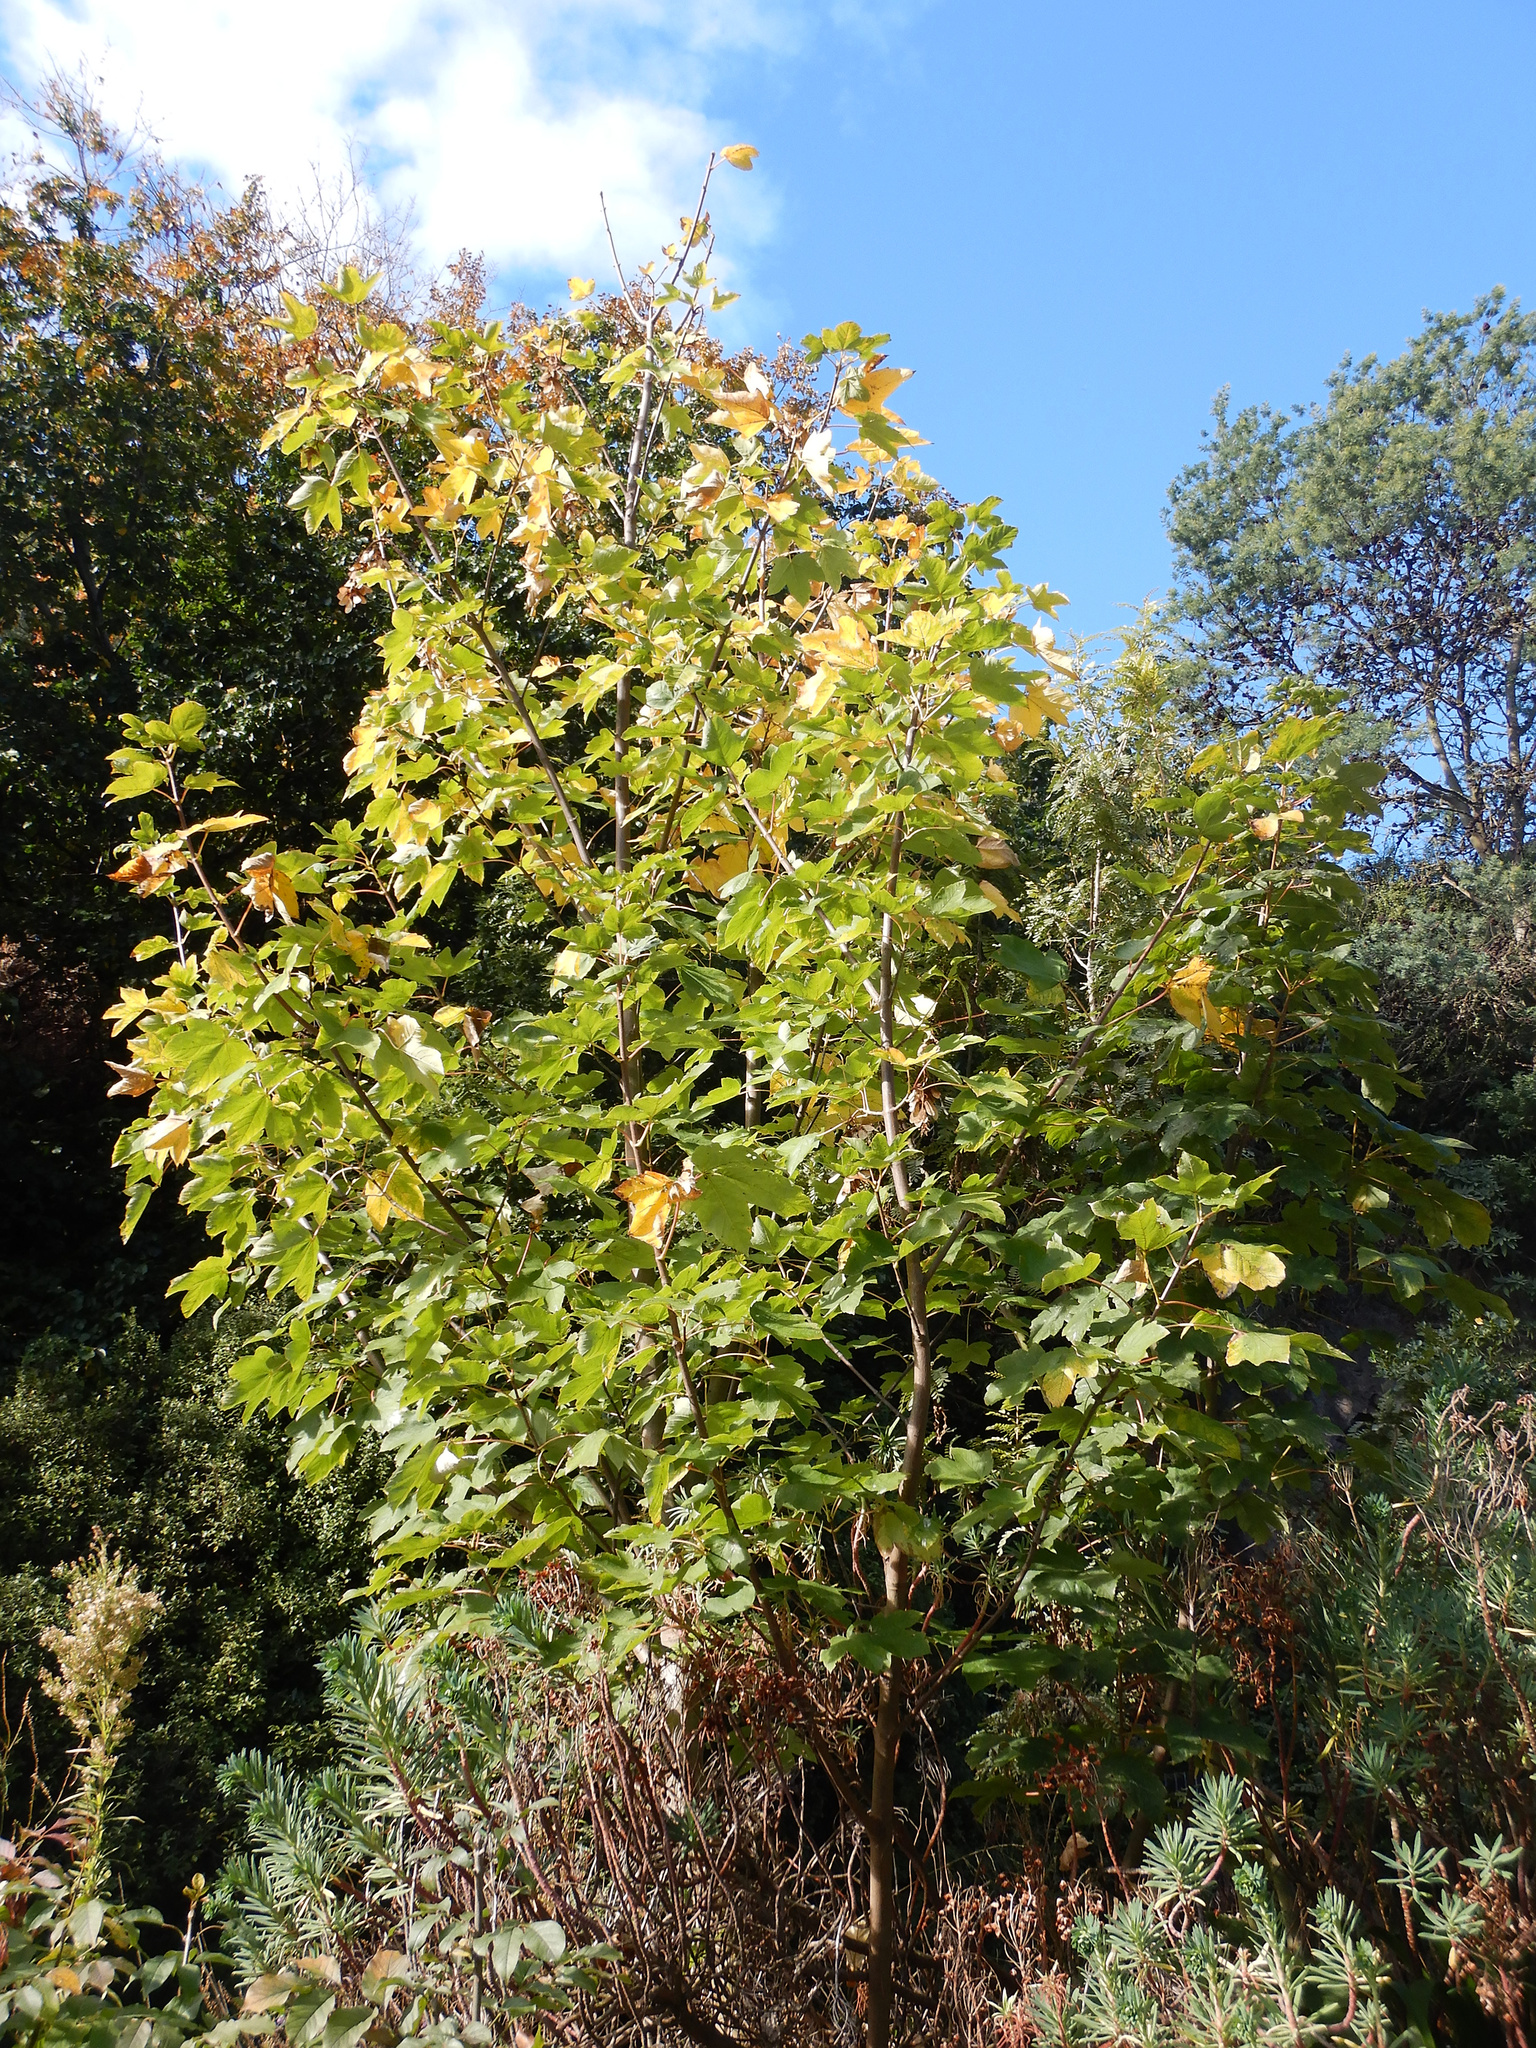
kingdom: Plantae
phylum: Tracheophyta
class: Magnoliopsida
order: Sapindales
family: Sapindaceae
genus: Acer
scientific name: Acer pseudoplatanus
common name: Sycamore
